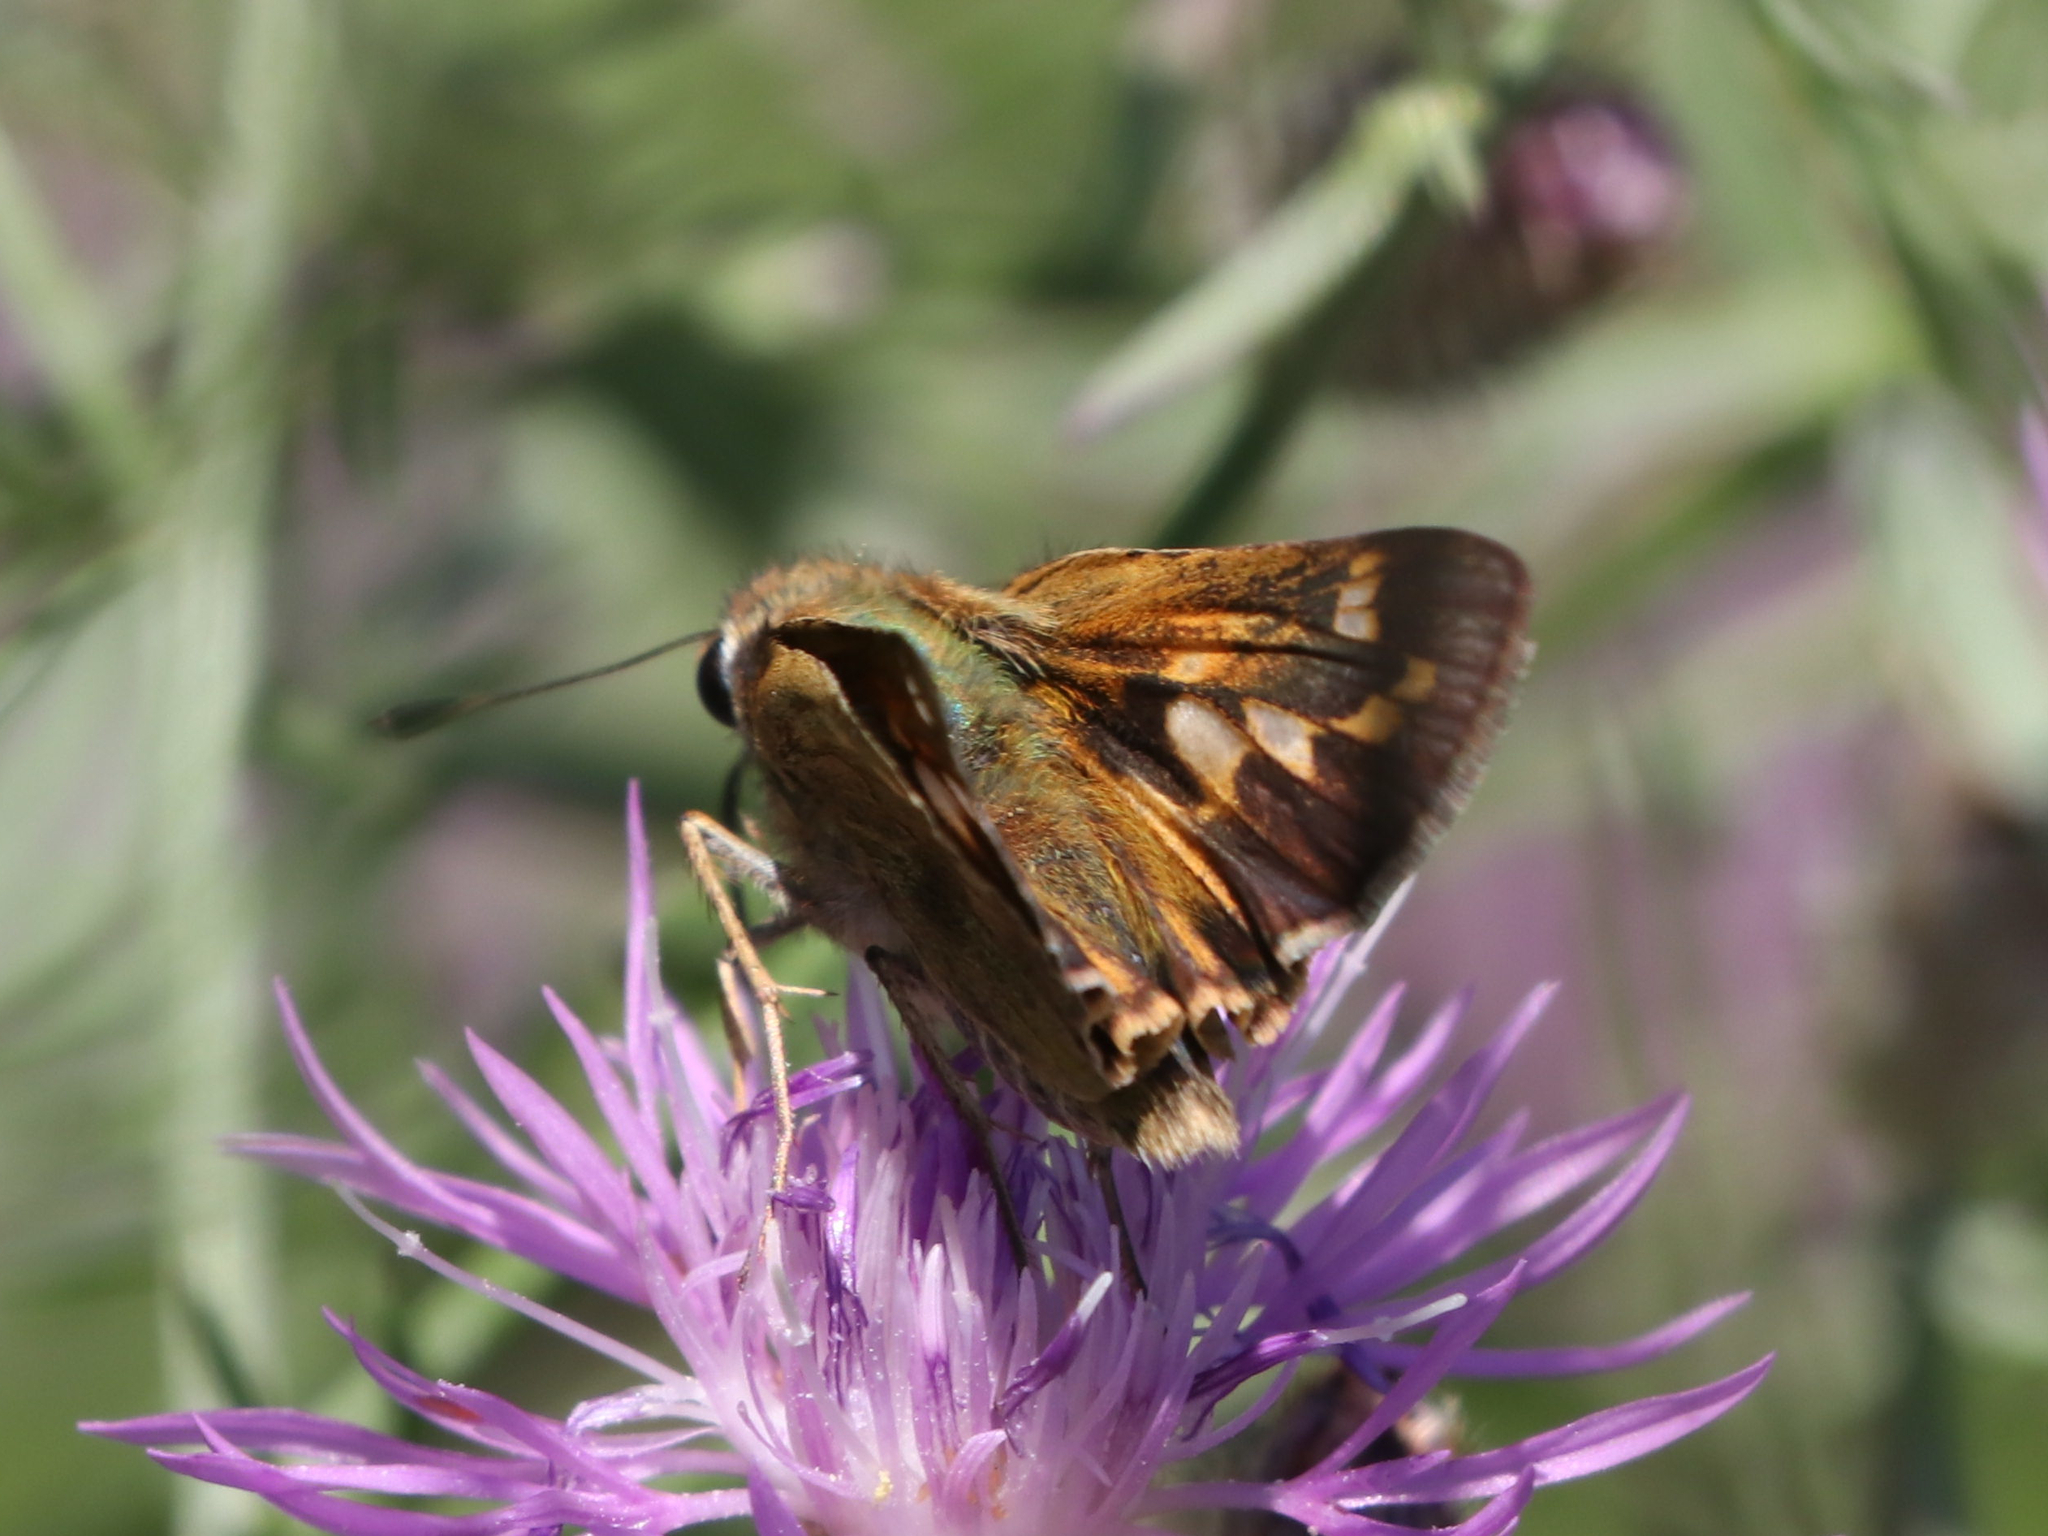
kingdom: Animalia
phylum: Arthropoda
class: Insecta
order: Lepidoptera
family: Hesperiidae
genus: Atalopedes
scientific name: Atalopedes
